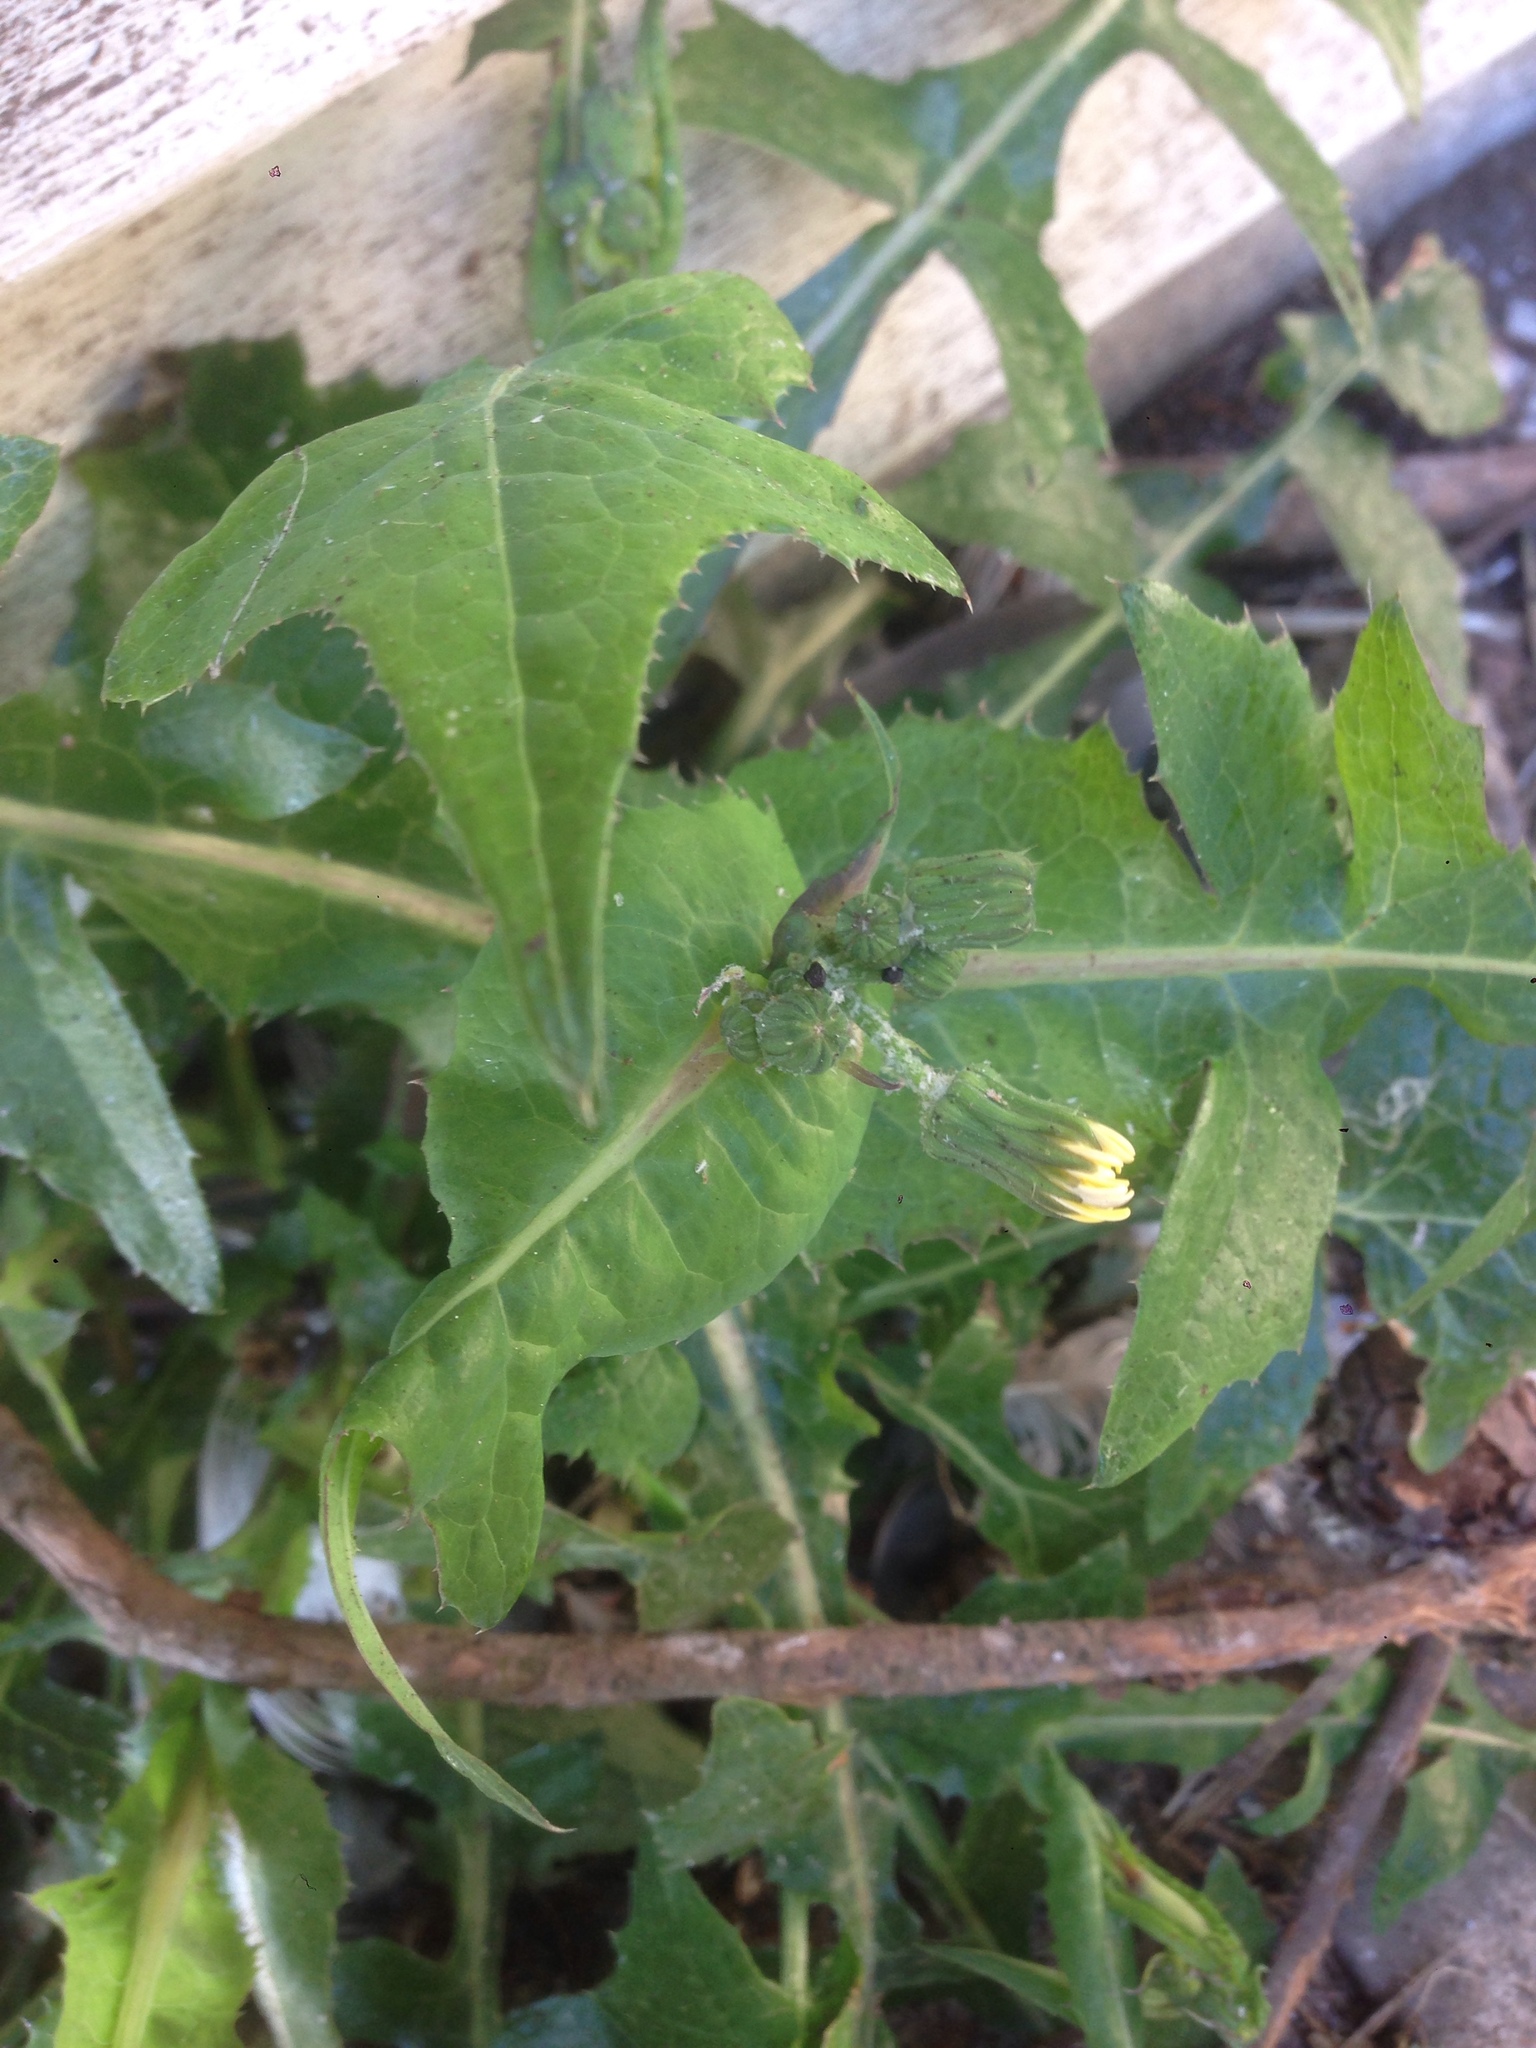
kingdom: Plantae
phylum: Tracheophyta
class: Magnoliopsida
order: Asterales
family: Asteraceae
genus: Sonchus
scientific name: Sonchus oleraceus
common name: Common sowthistle
